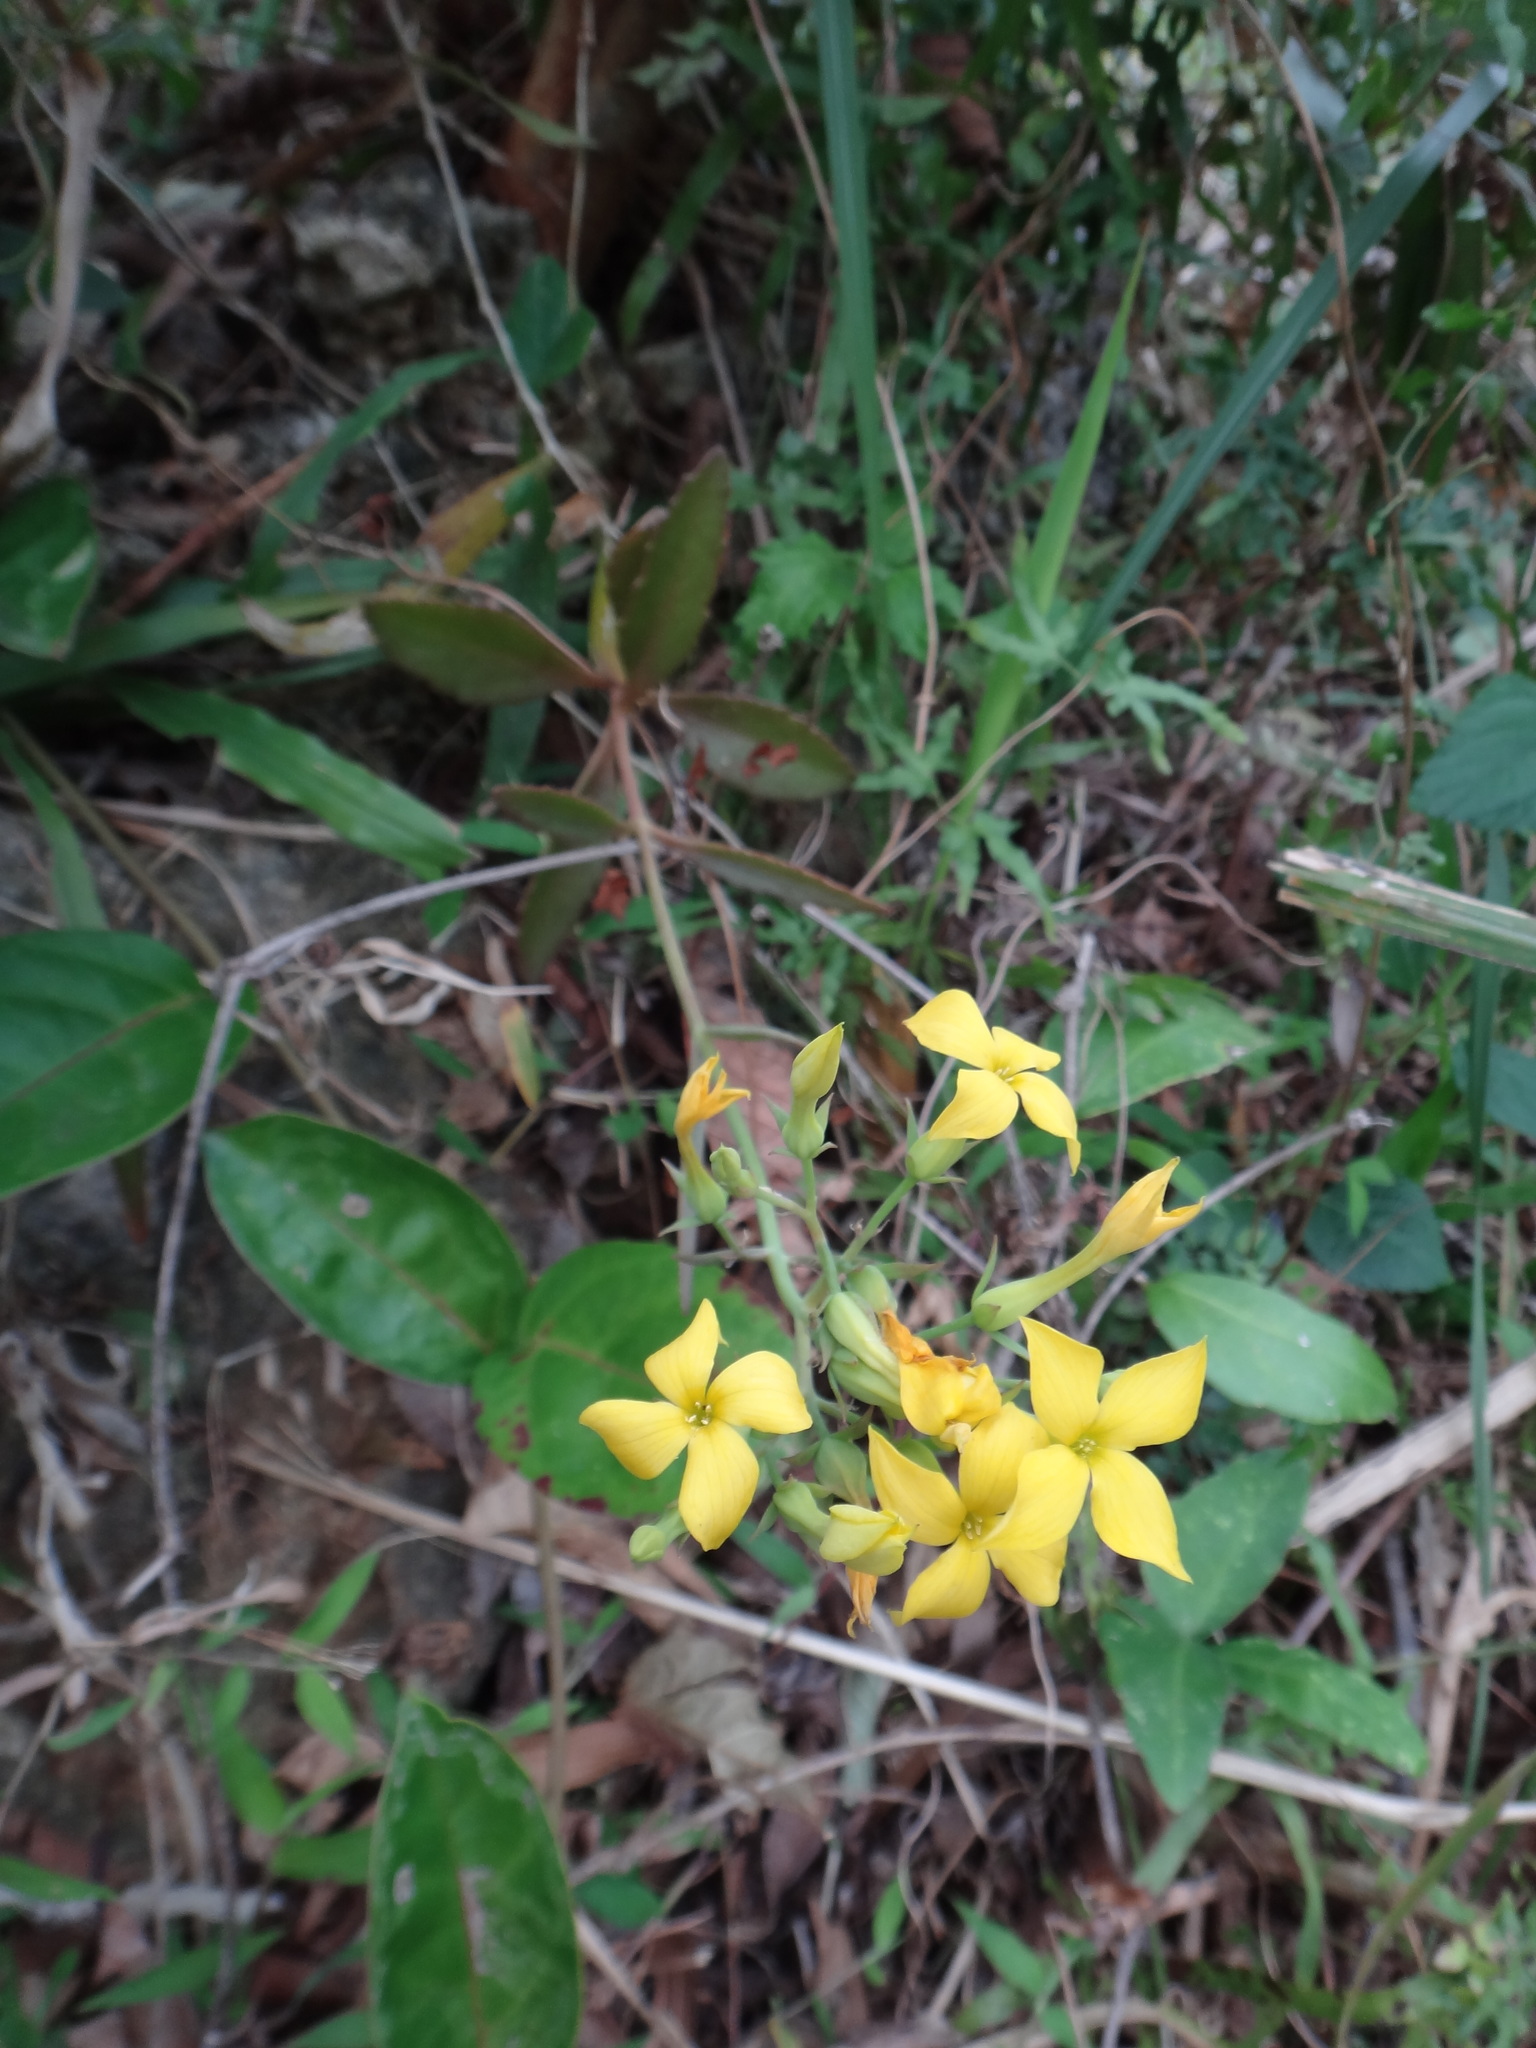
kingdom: Plantae
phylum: Tracheophyta
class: Magnoliopsida
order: Saxifragales
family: Crassulaceae
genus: Kalanchoe
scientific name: Kalanchoe integra
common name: Neverdie
